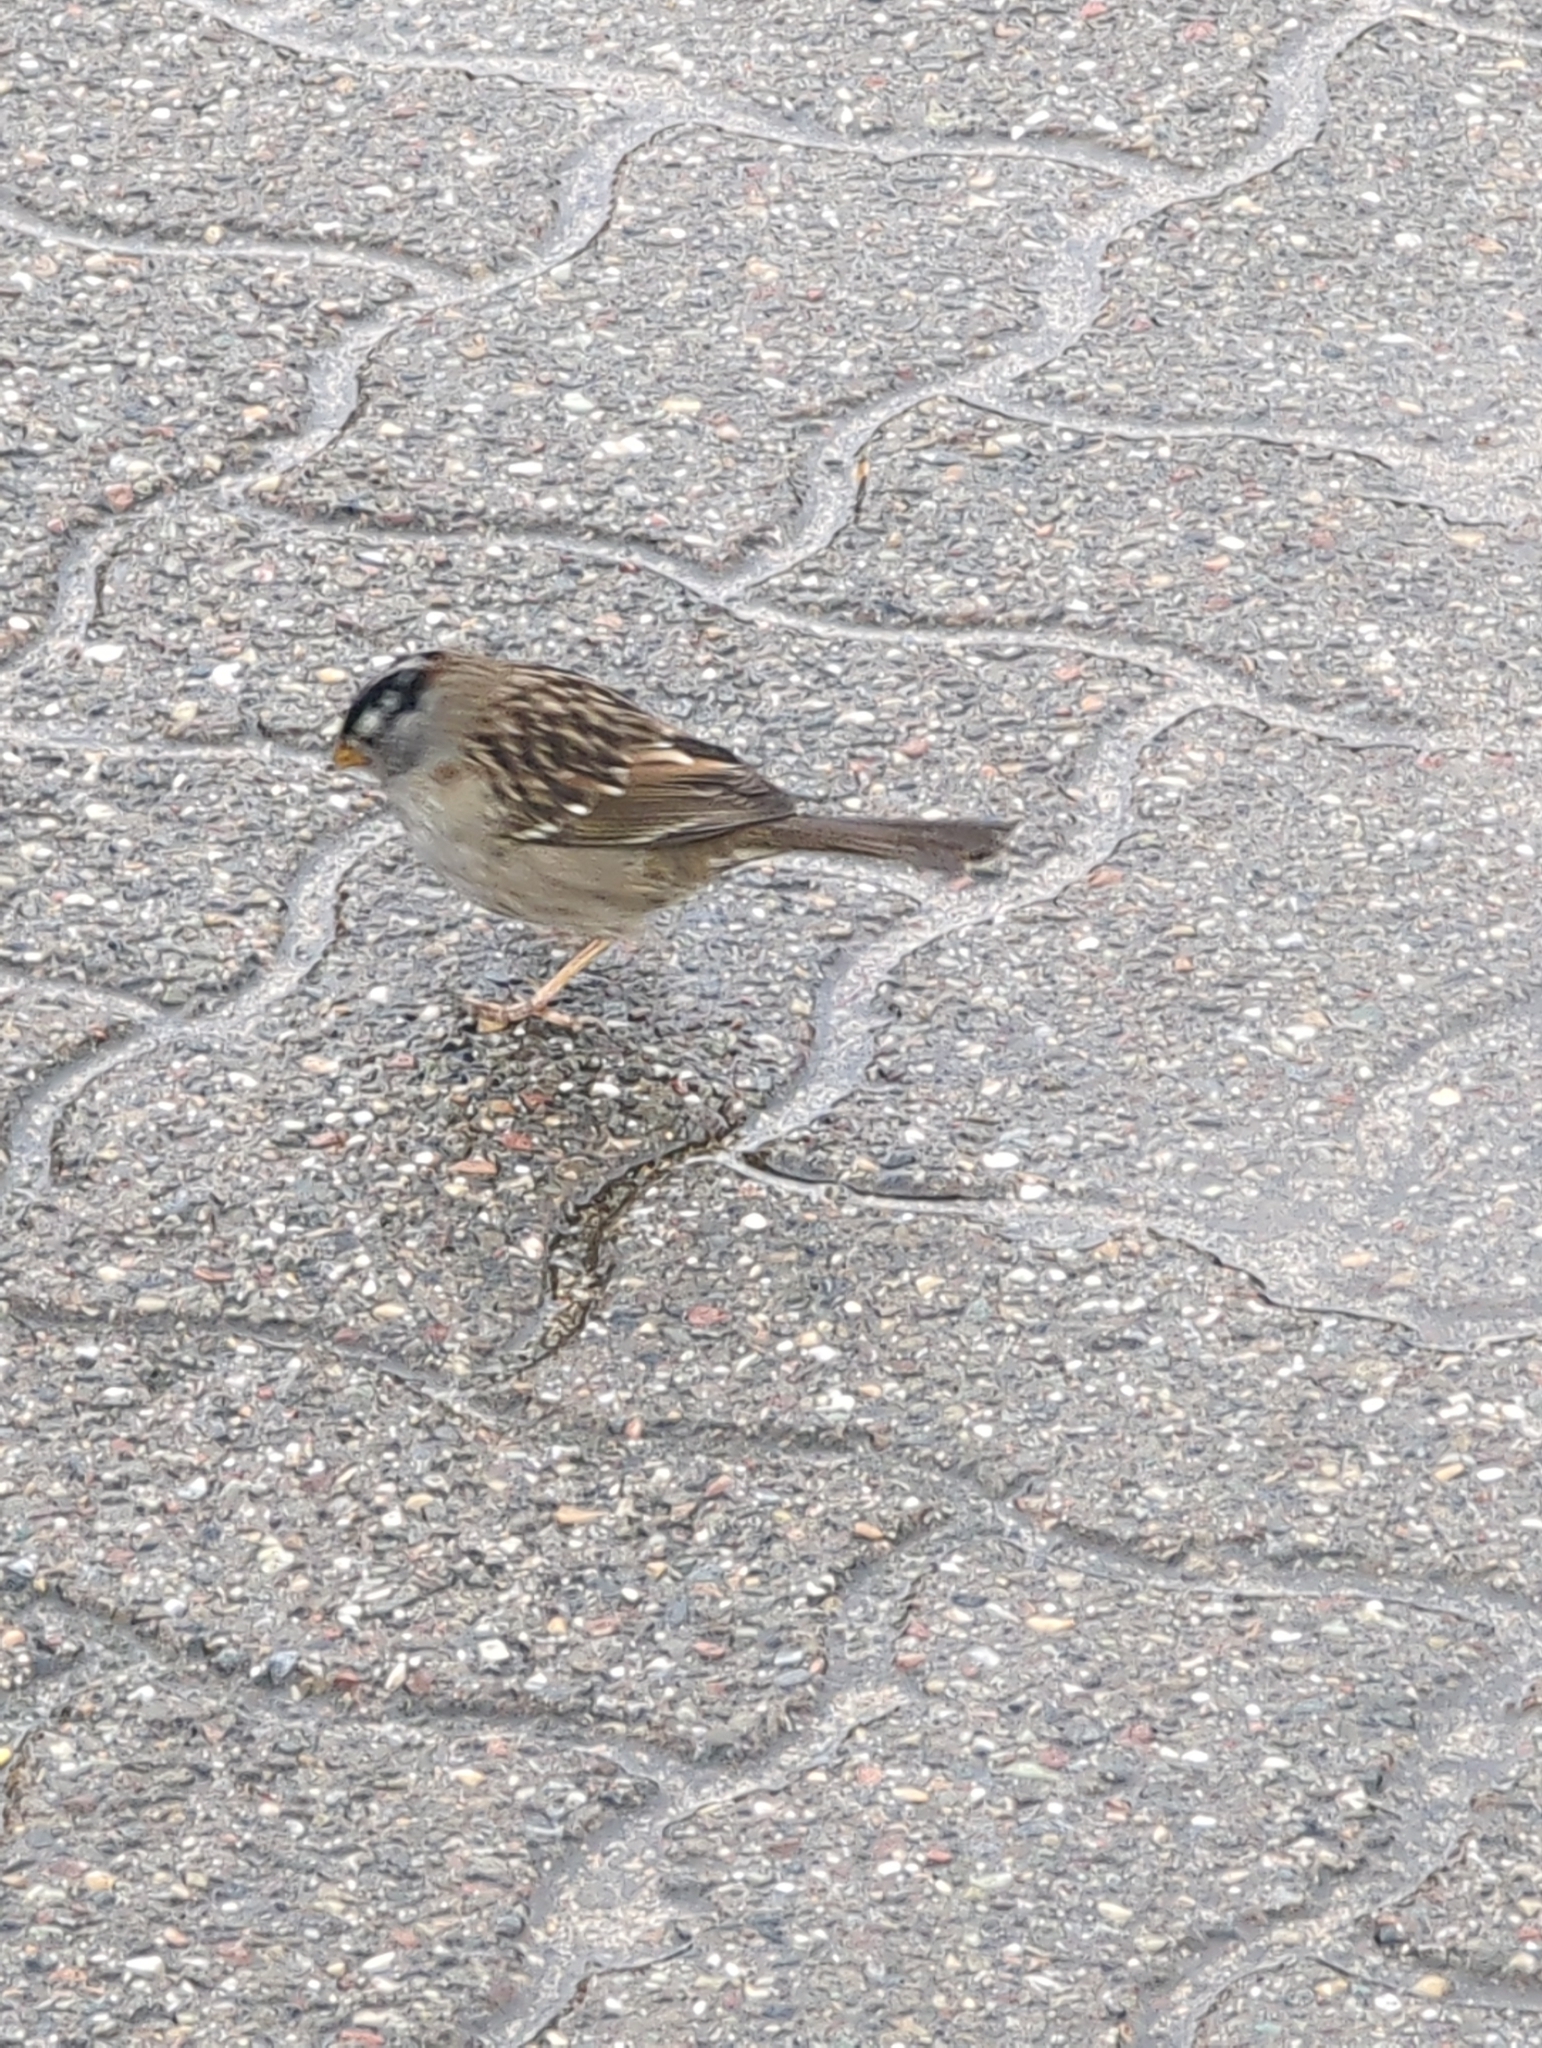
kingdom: Animalia
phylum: Chordata
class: Aves
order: Passeriformes
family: Passerellidae
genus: Zonotrichia
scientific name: Zonotrichia leucophrys
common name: White-crowned sparrow
